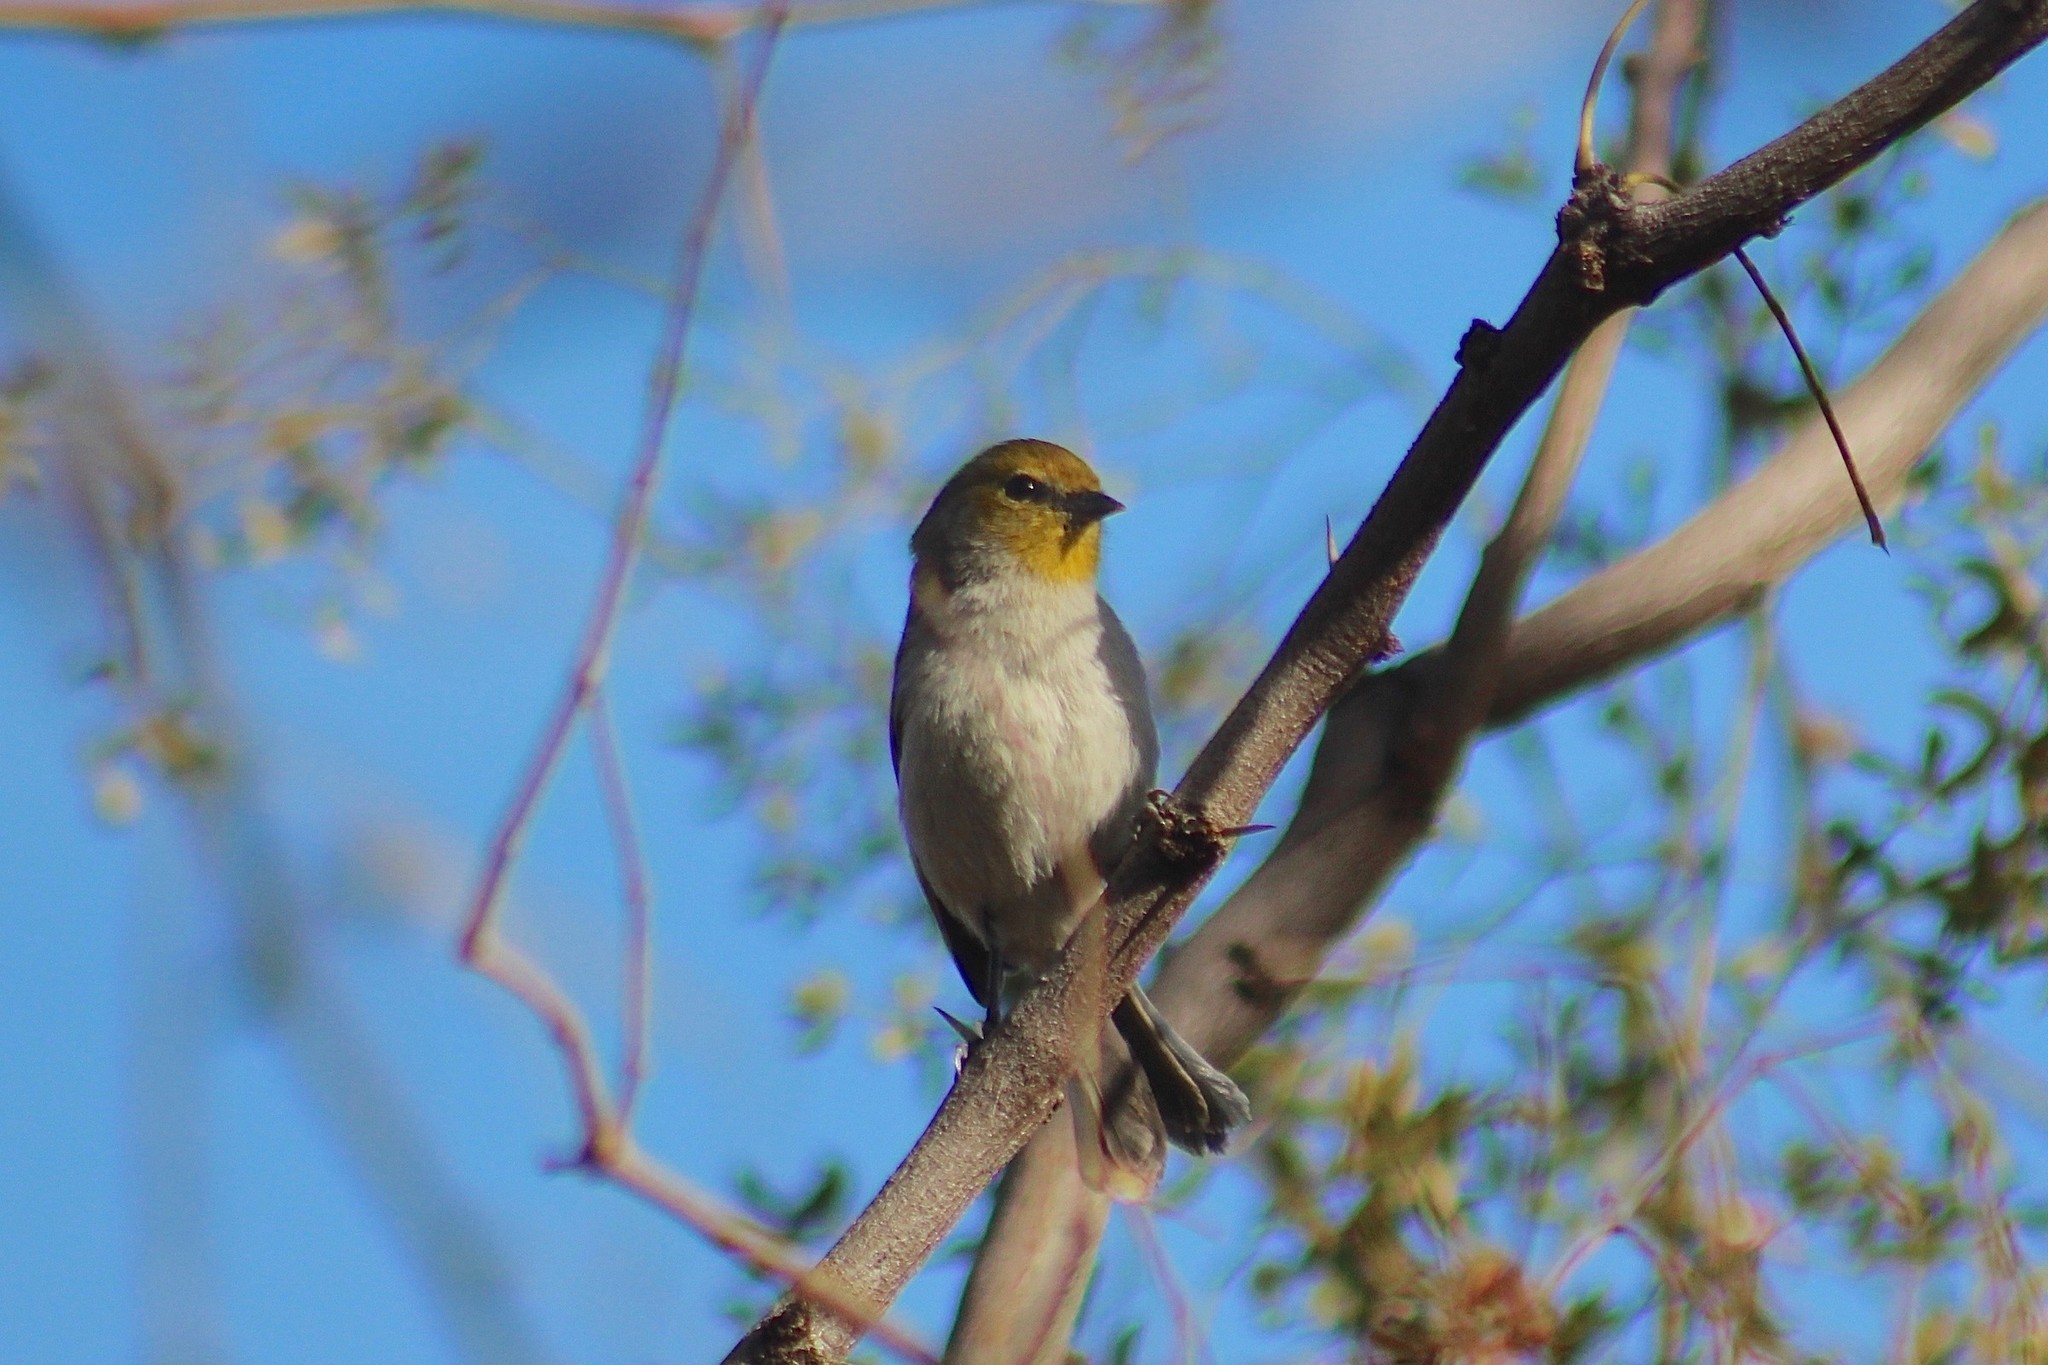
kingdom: Animalia
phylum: Chordata
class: Aves
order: Passeriformes
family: Remizidae
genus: Auriparus
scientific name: Auriparus flaviceps
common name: Verdin
